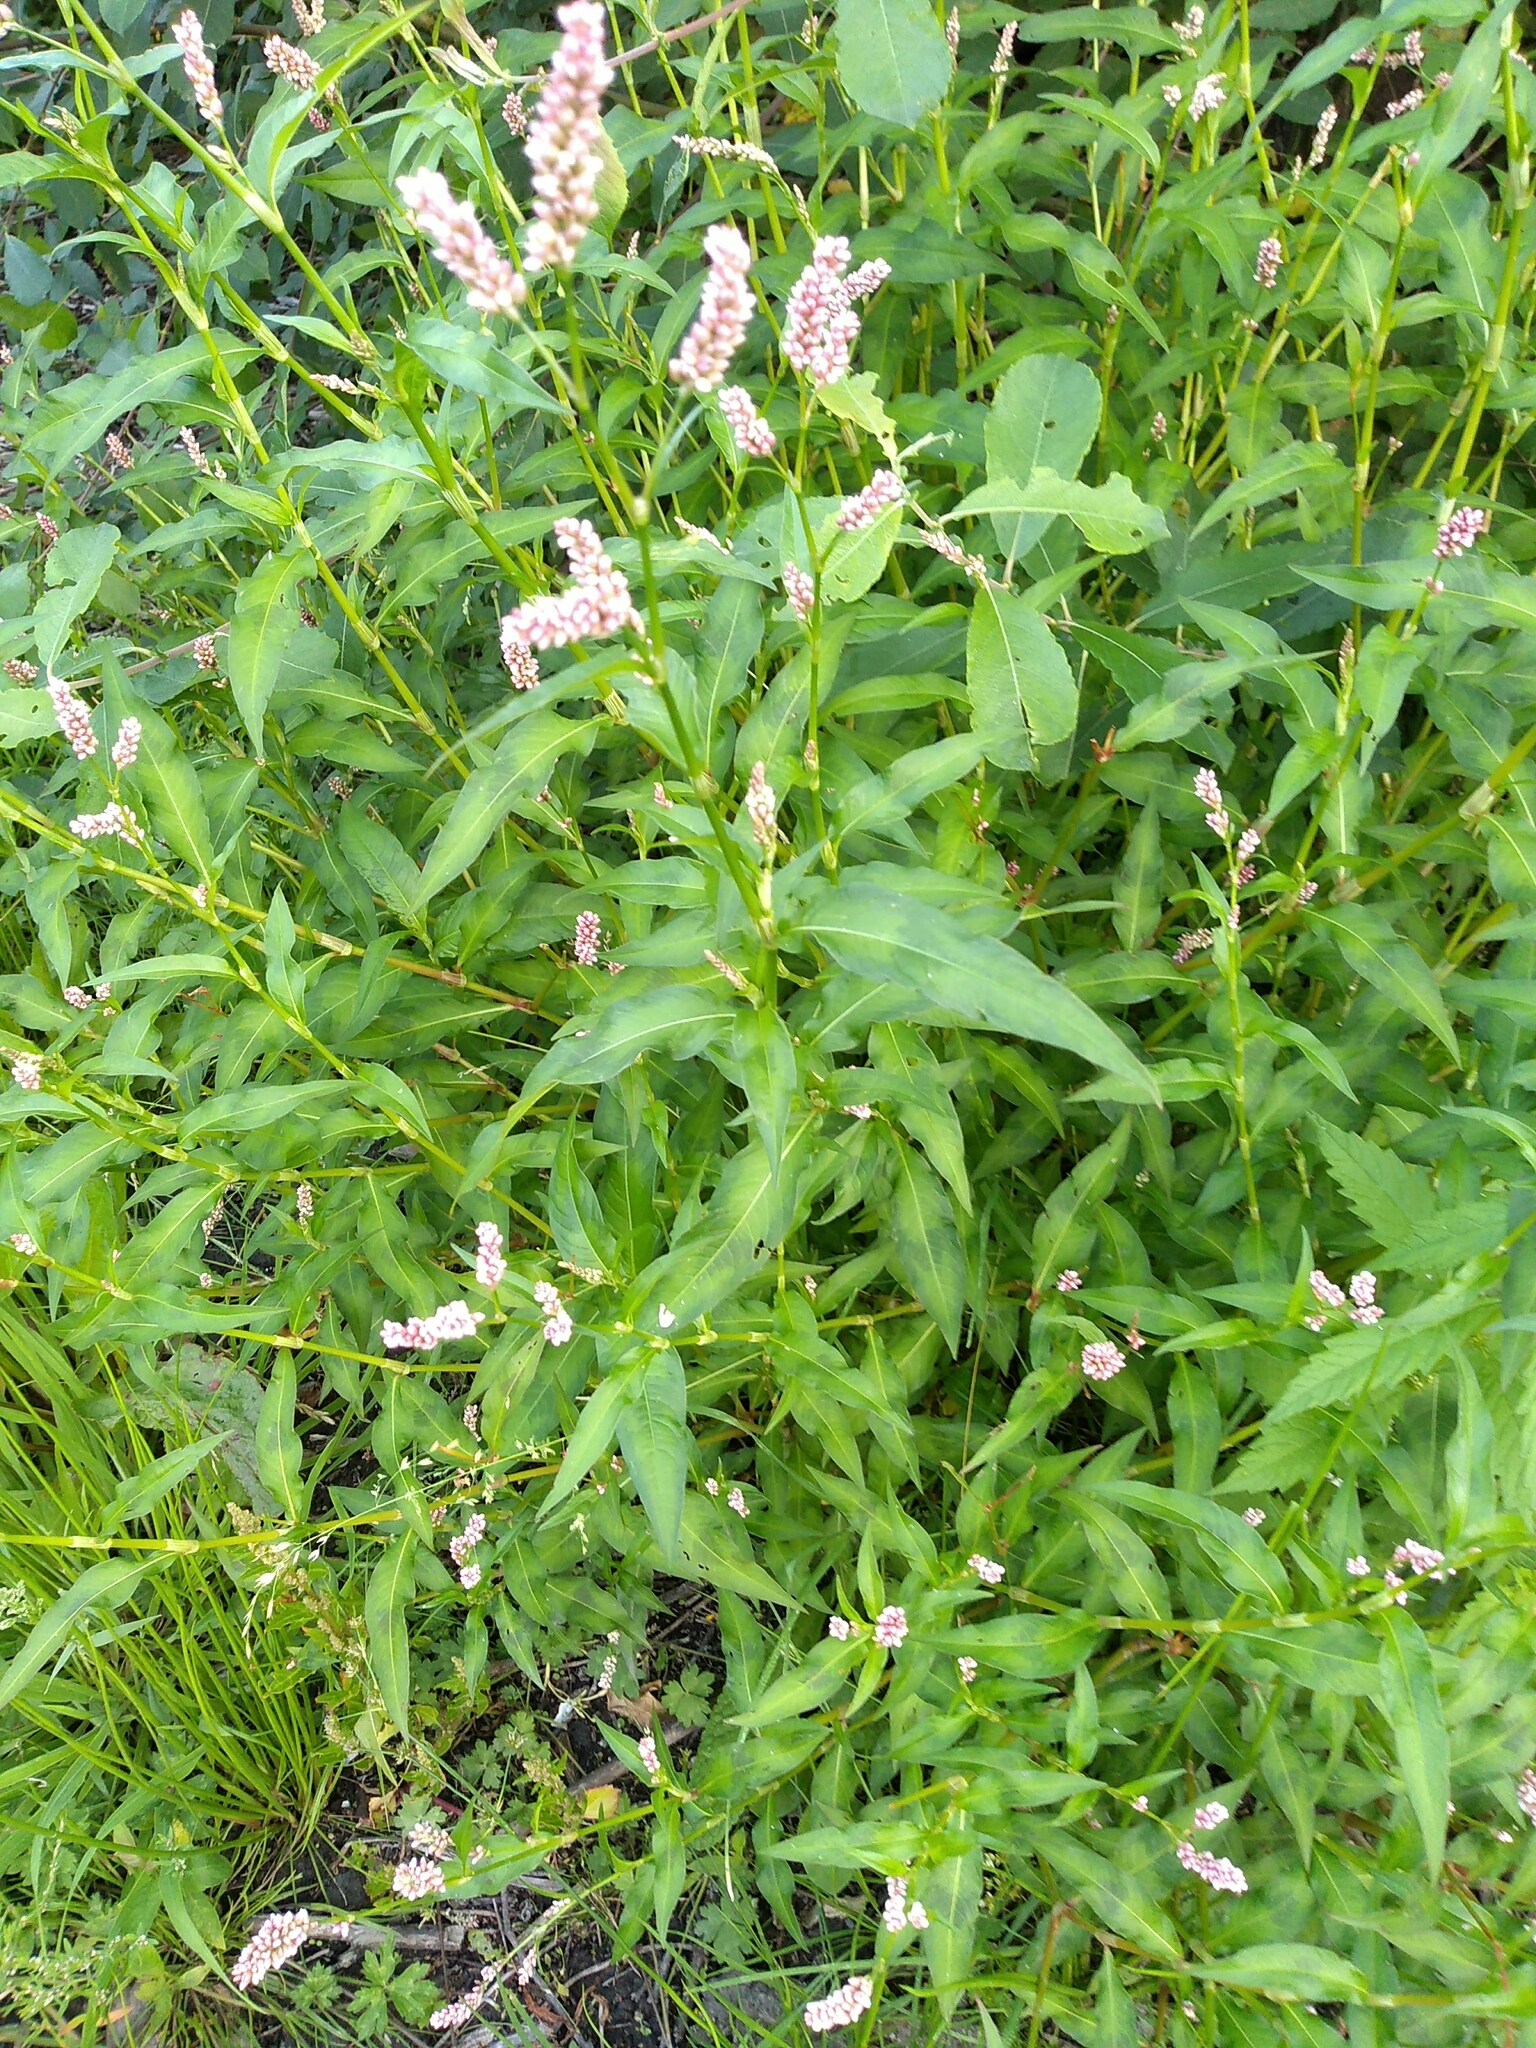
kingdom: Plantae
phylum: Tracheophyta
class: Magnoliopsida
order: Caryophyllales
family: Polygonaceae
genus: Persicaria
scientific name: Persicaria maculosa
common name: Redshank
